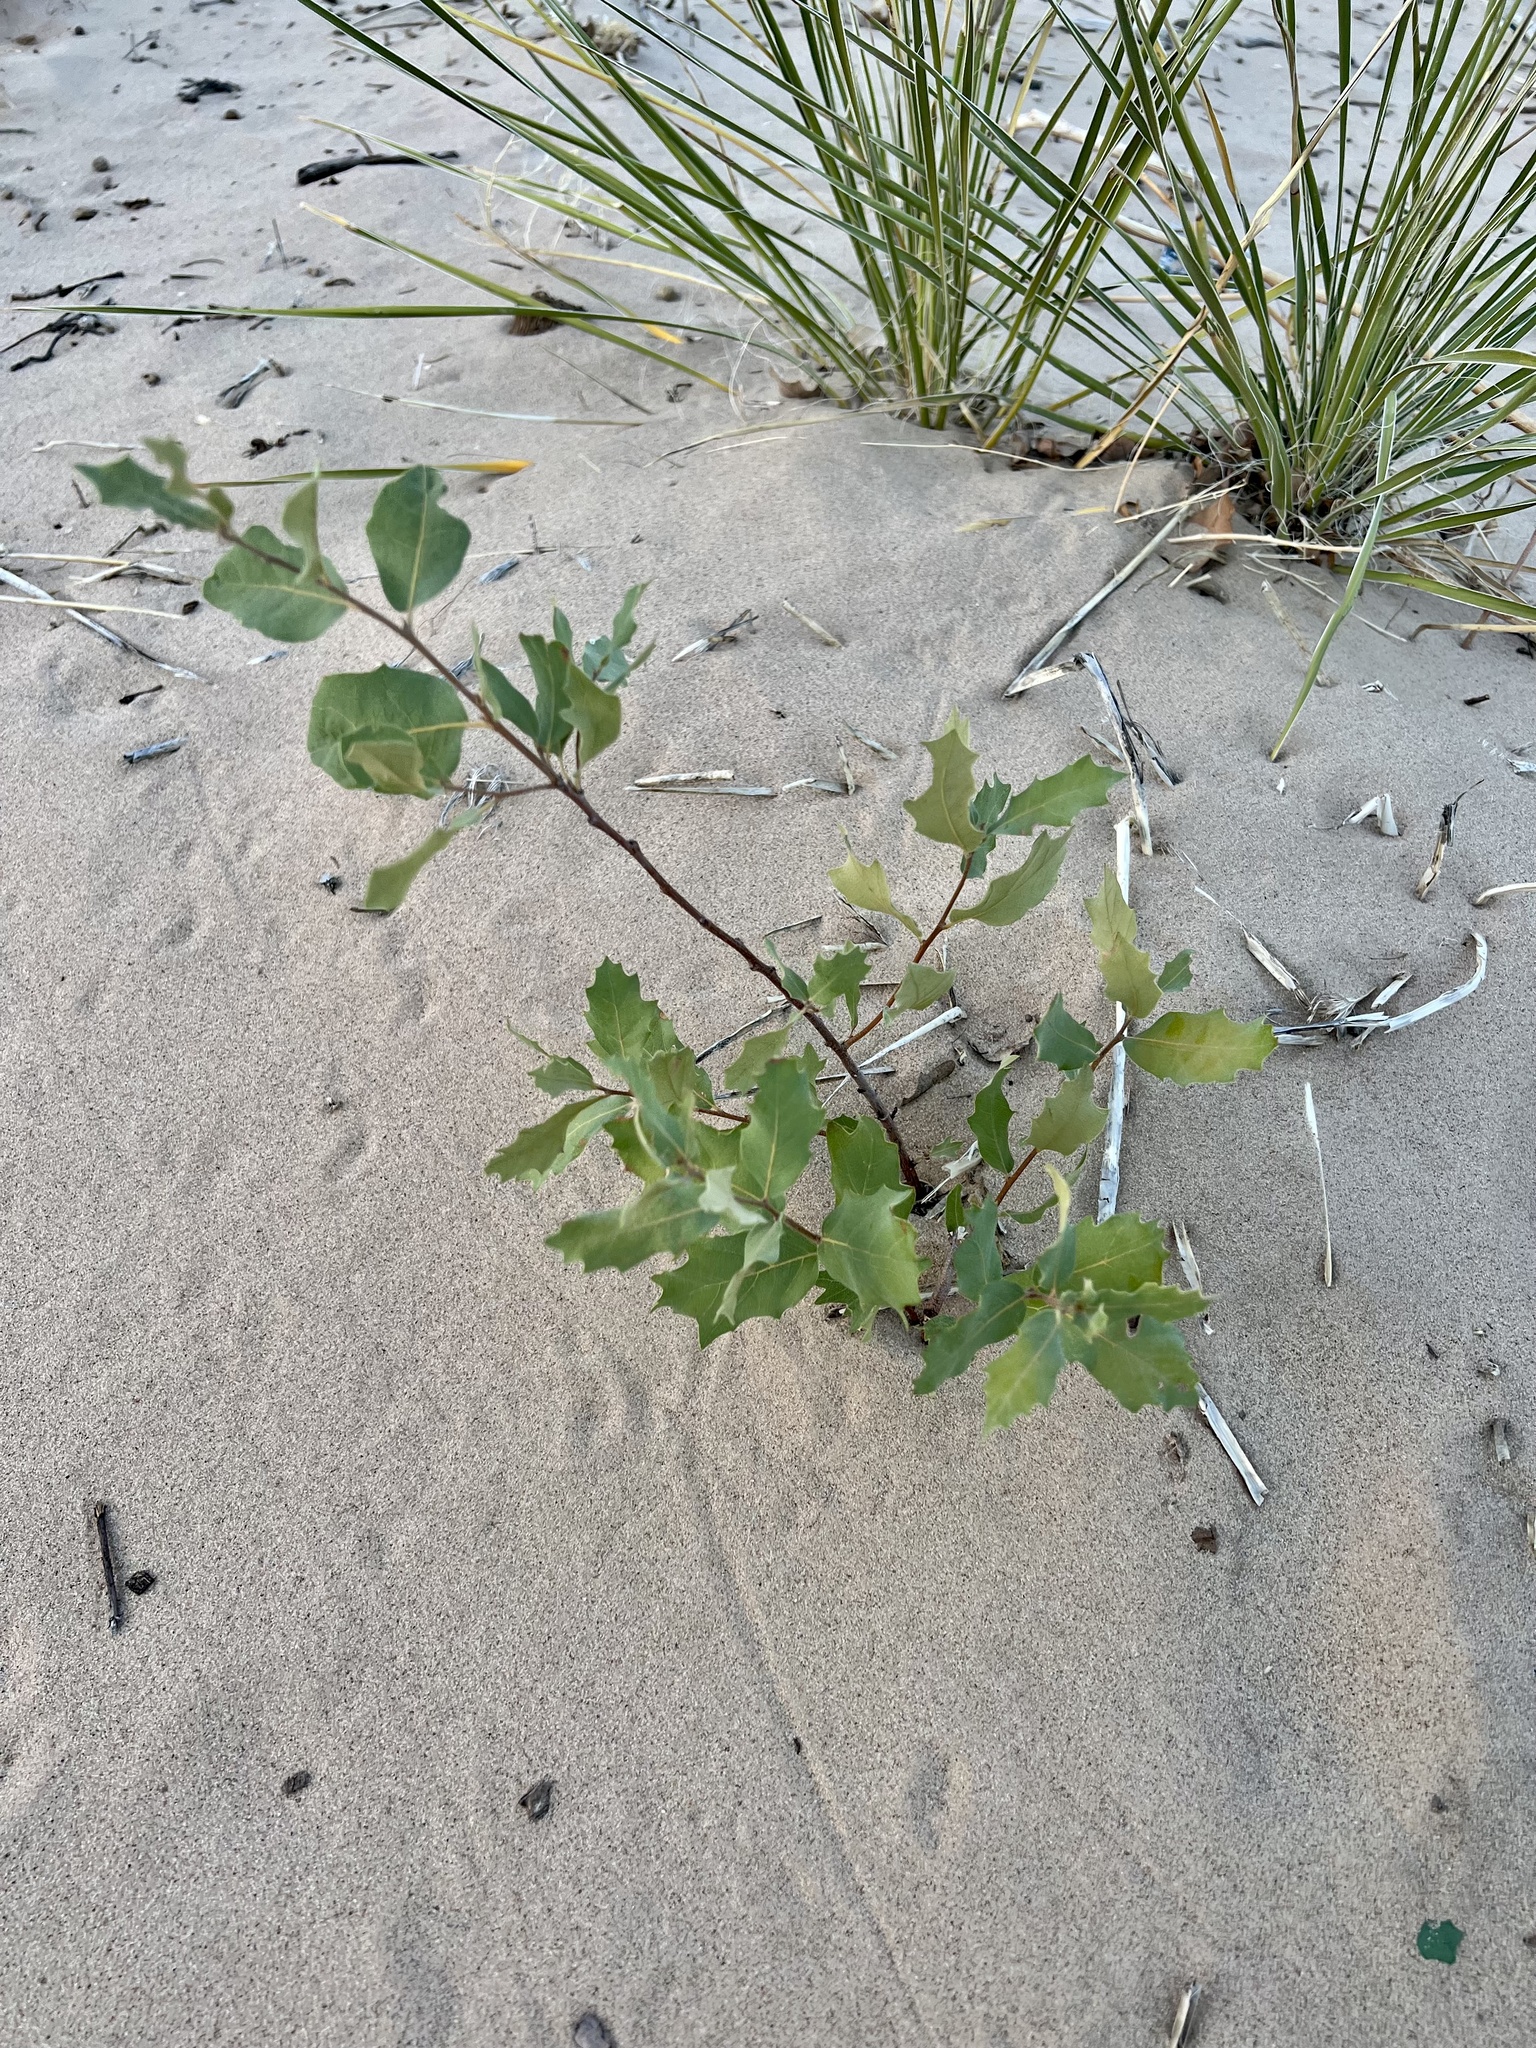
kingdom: Plantae
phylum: Tracheophyta
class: Magnoliopsida
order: Fagales
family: Fagaceae
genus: Quercus
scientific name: Quercus havardii
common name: Shinnery oak
